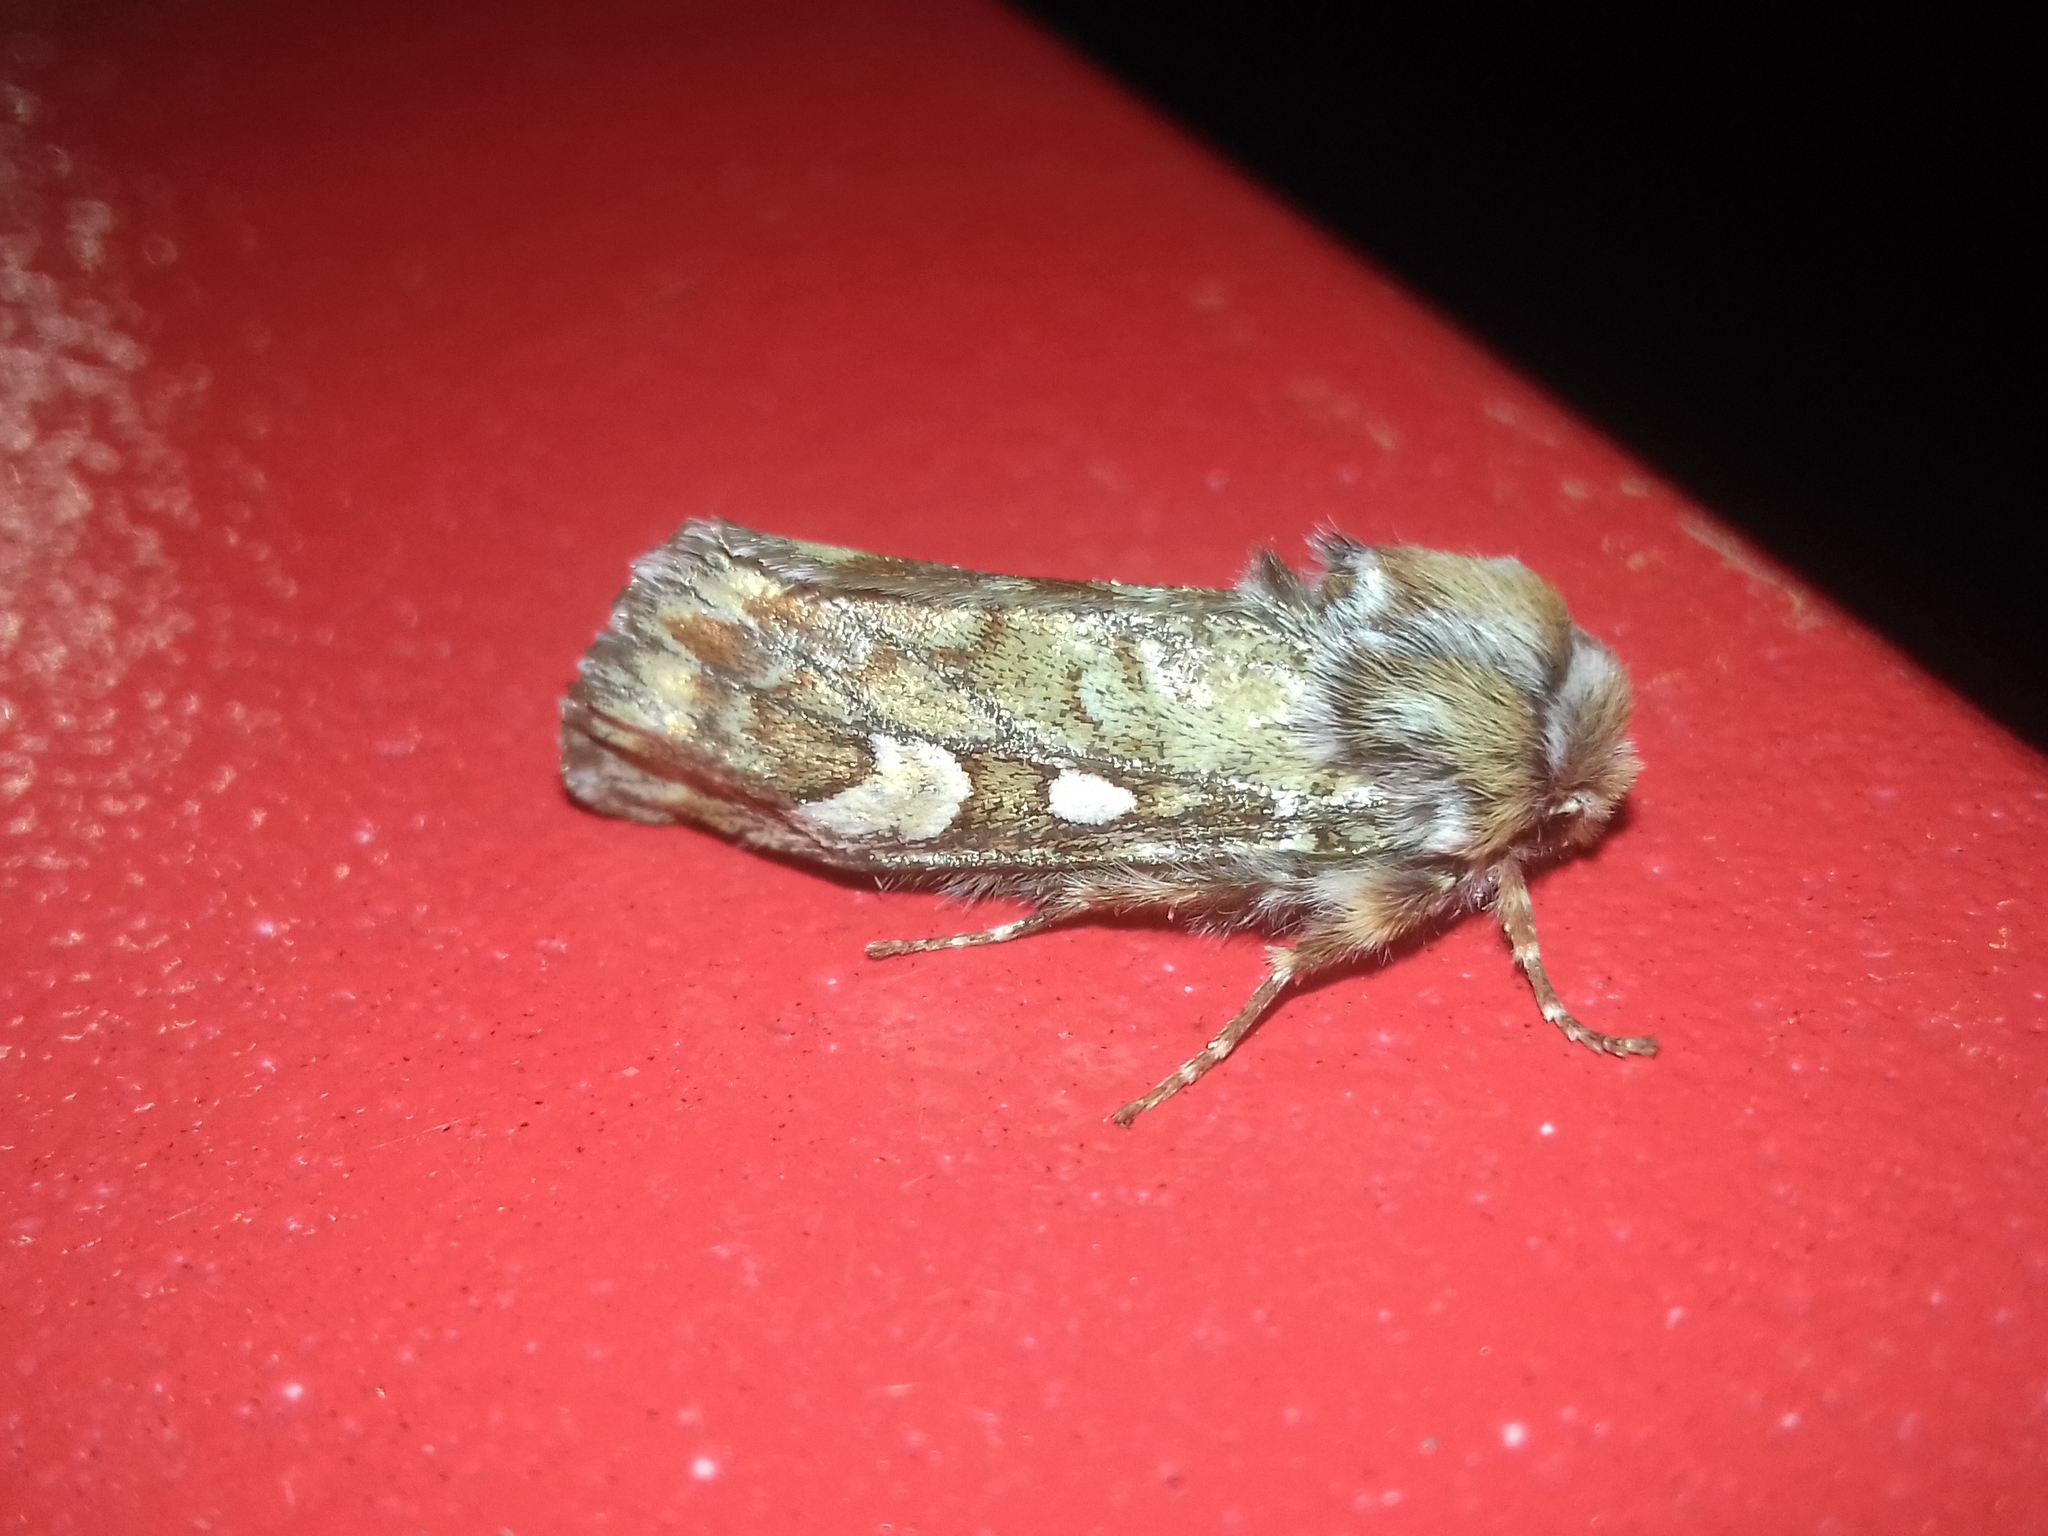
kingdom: Animalia
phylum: Arthropoda
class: Insecta
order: Lepidoptera
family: Noctuidae
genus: Panolis
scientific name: Panolis flammea
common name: Pine beauty
